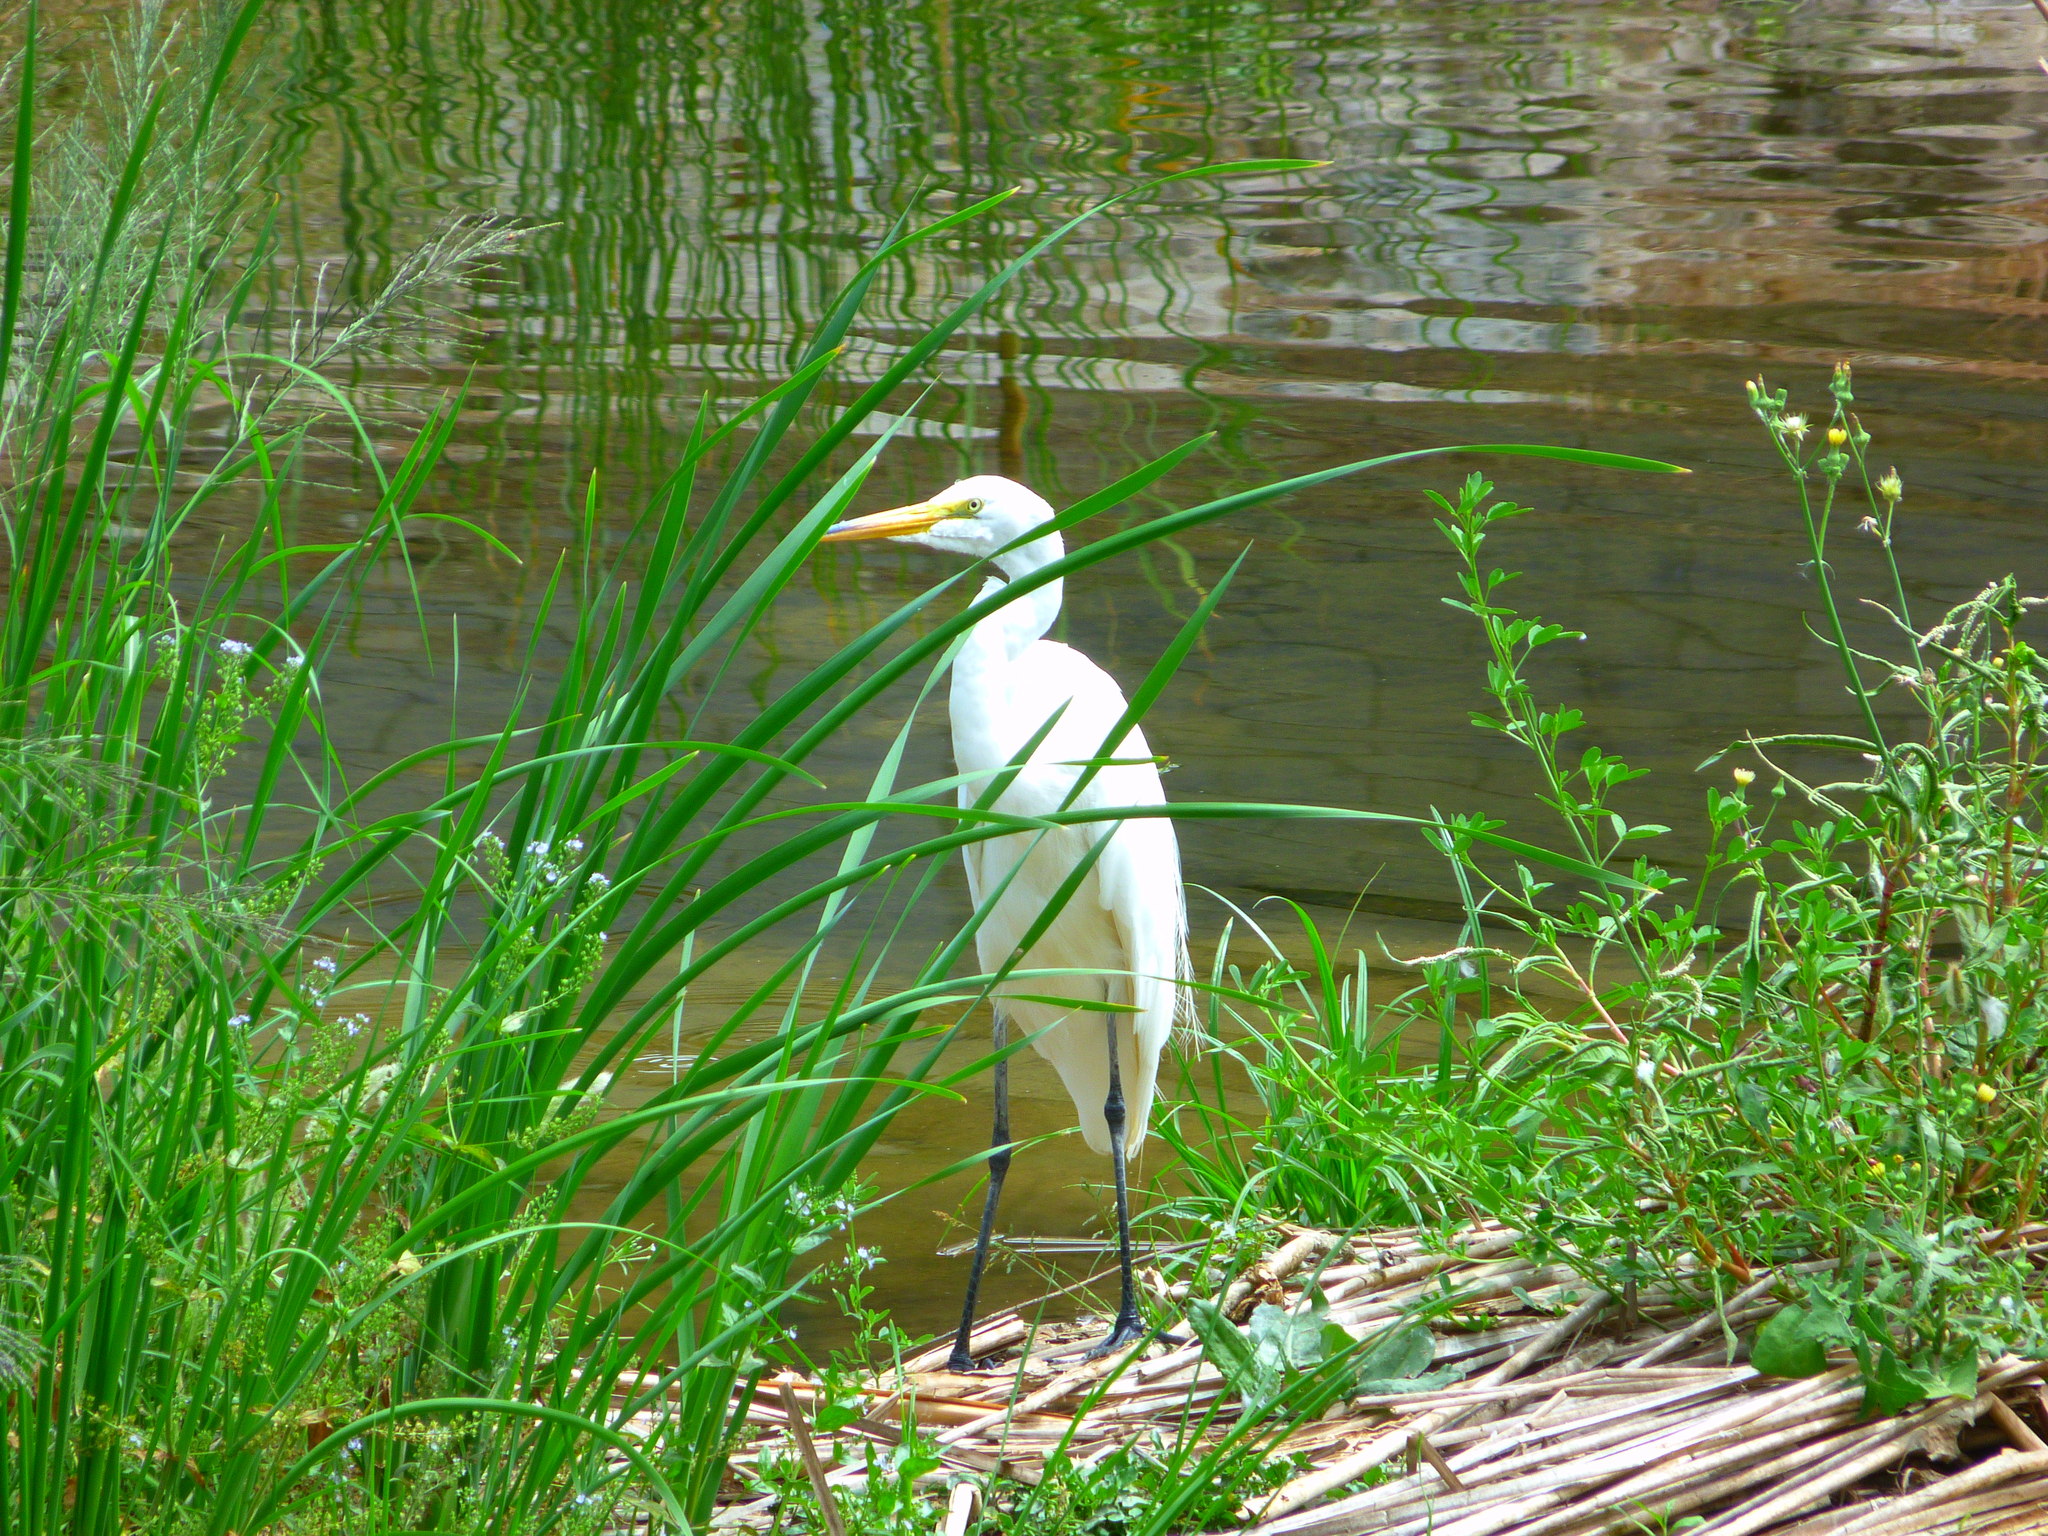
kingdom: Animalia
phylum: Chordata
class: Aves
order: Pelecaniformes
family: Ardeidae
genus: Ardea
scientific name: Ardea alba
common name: Great egret
